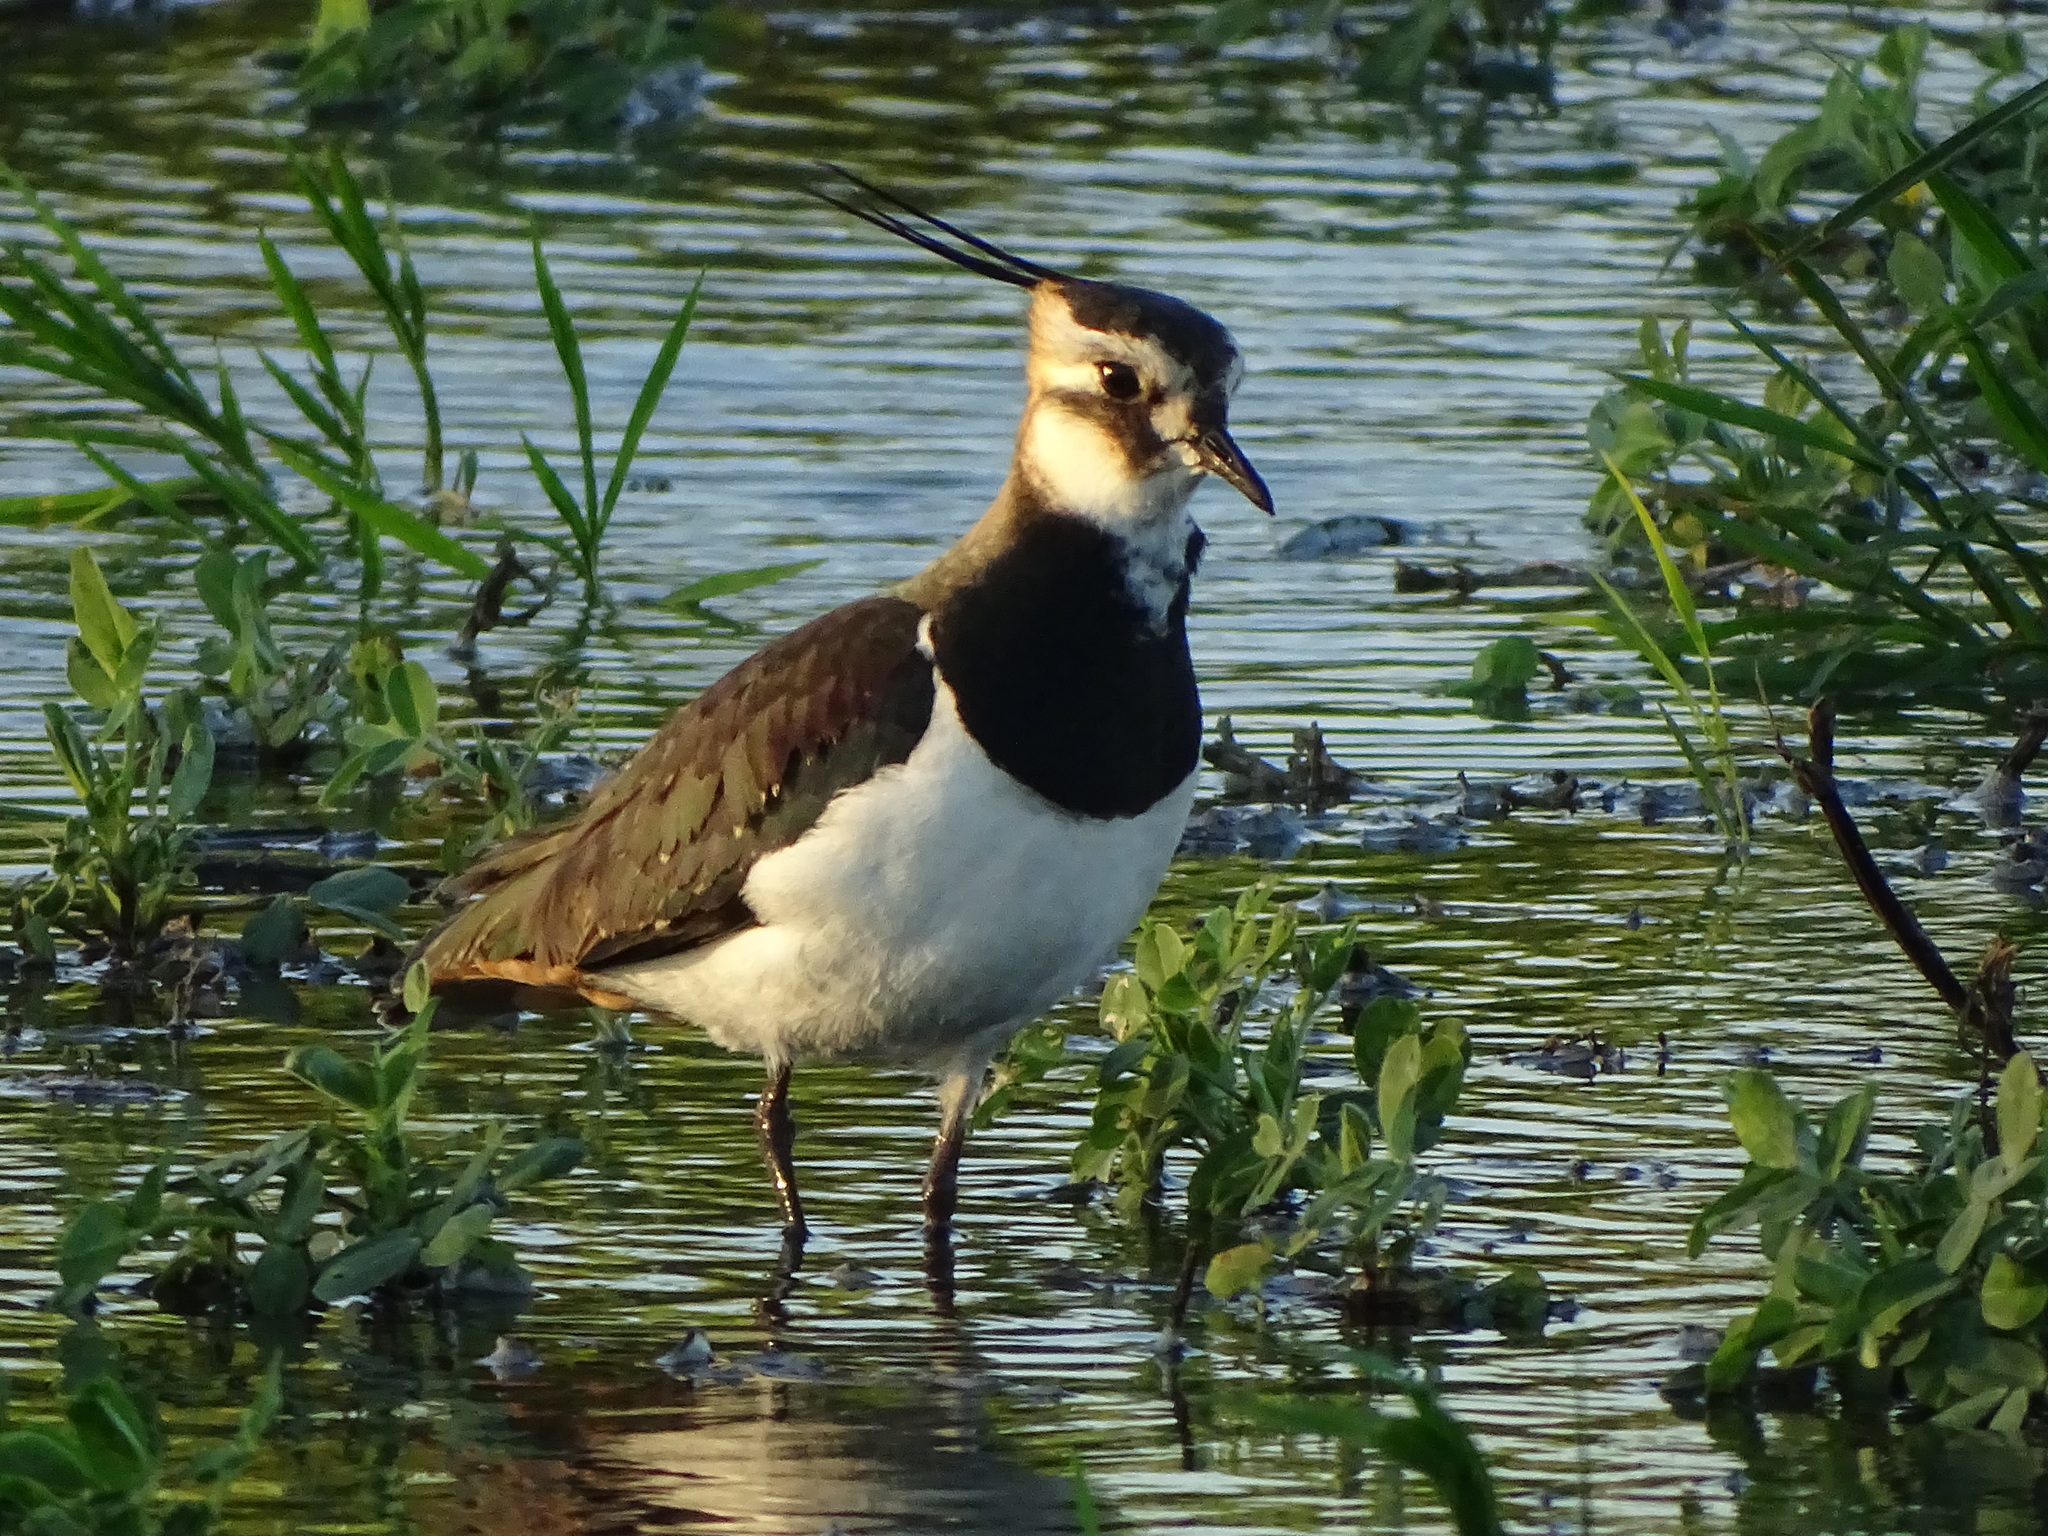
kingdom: Animalia
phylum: Chordata
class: Aves
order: Charadriiformes
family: Charadriidae
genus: Vanellus
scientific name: Vanellus vanellus
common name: Northern lapwing
